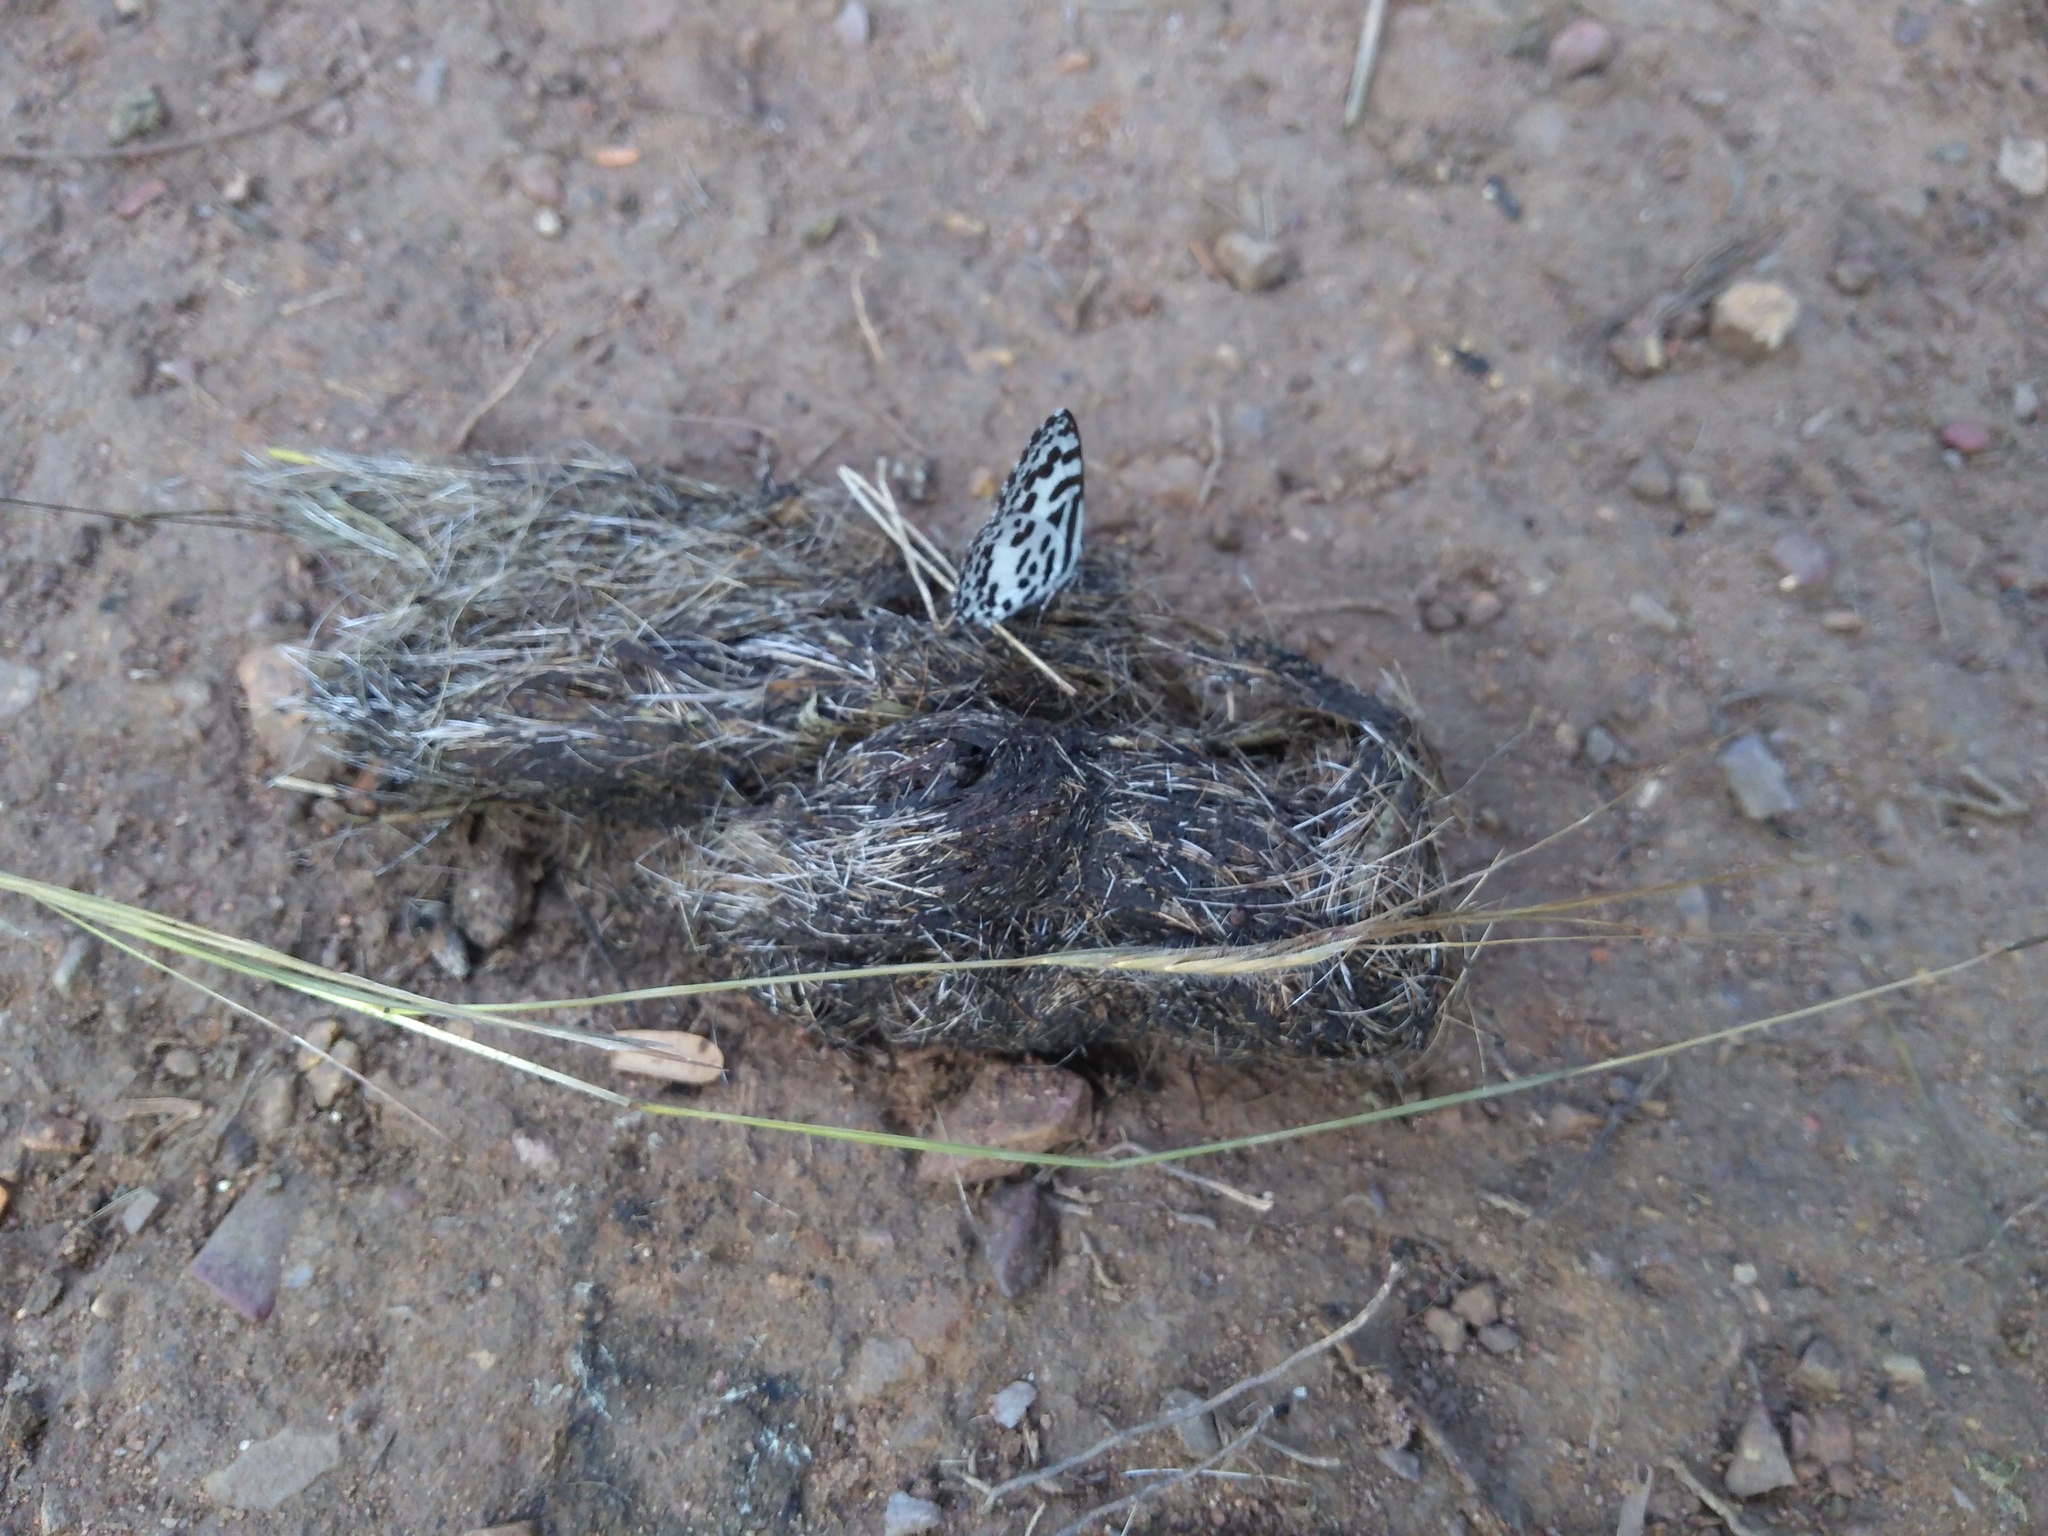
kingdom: Animalia
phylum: Arthropoda
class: Insecta
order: Lepidoptera
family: Lycaenidae
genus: Castalius
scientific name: Castalius rosimon
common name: Common pierrot
